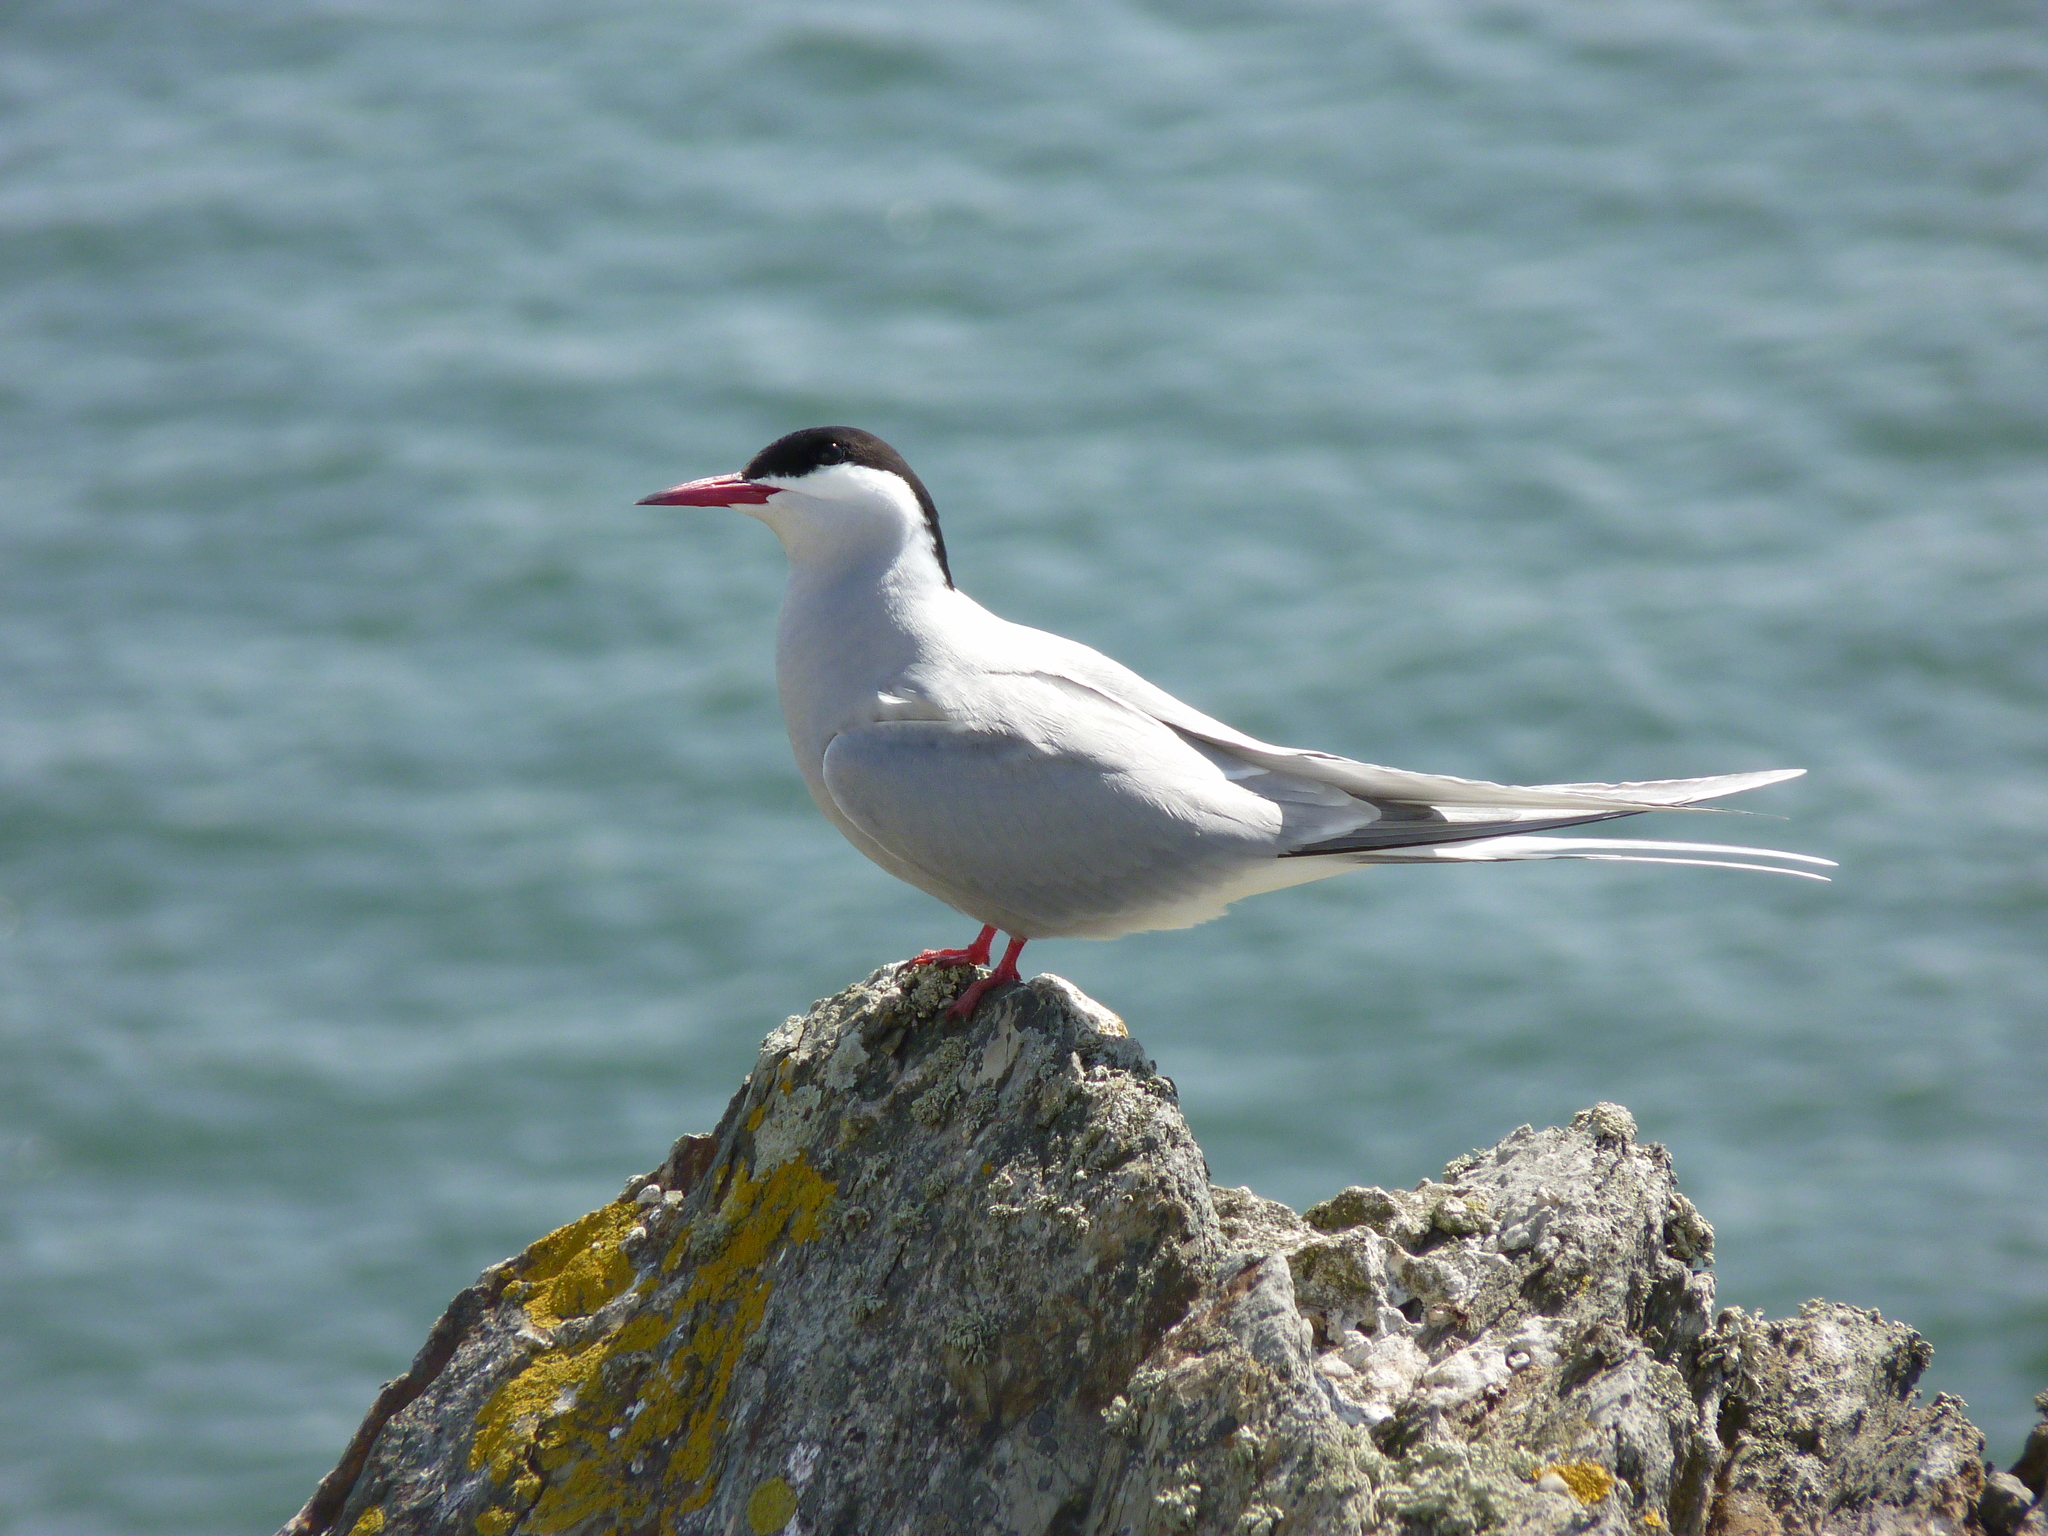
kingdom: Animalia
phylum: Chordata
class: Aves
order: Charadriiformes
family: Laridae
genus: Sterna
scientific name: Sterna paradisaea
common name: Arctic tern
